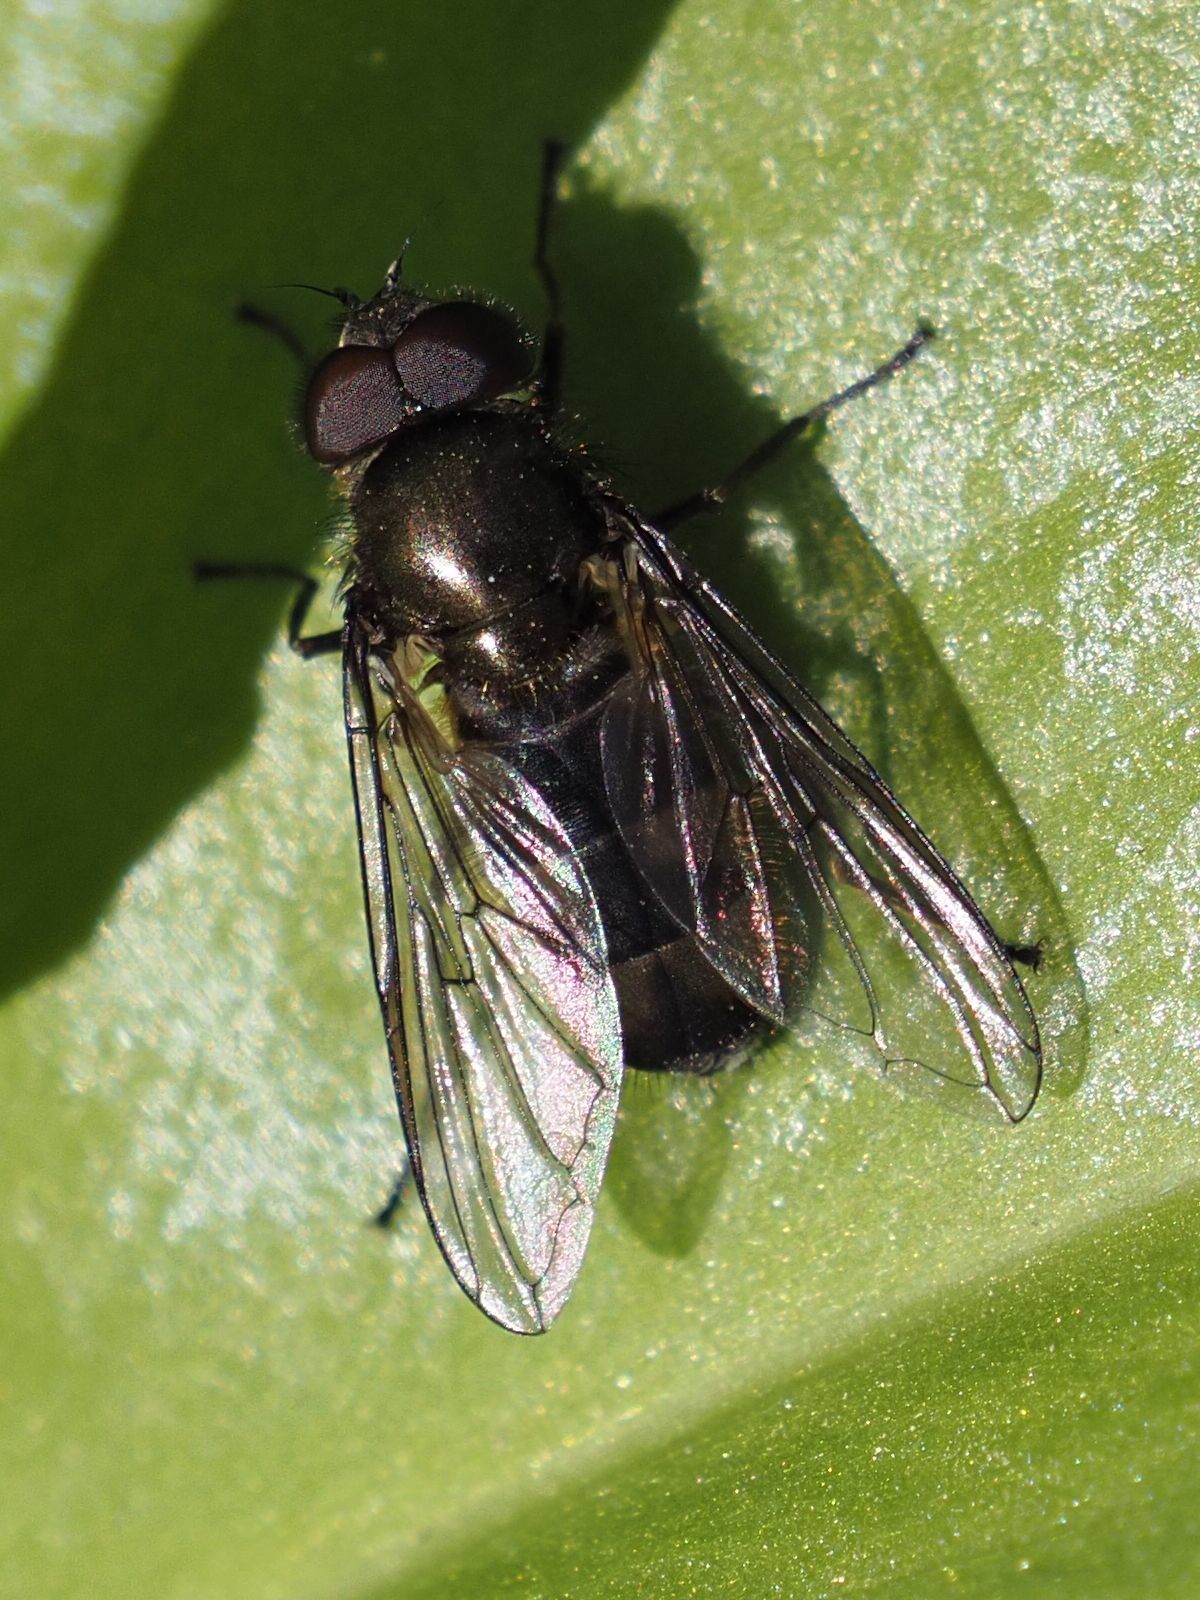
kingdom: Animalia
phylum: Arthropoda
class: Insecta
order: Diptera
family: Syrphidae
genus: Cheilosia
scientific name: Cheilosia fasciata
